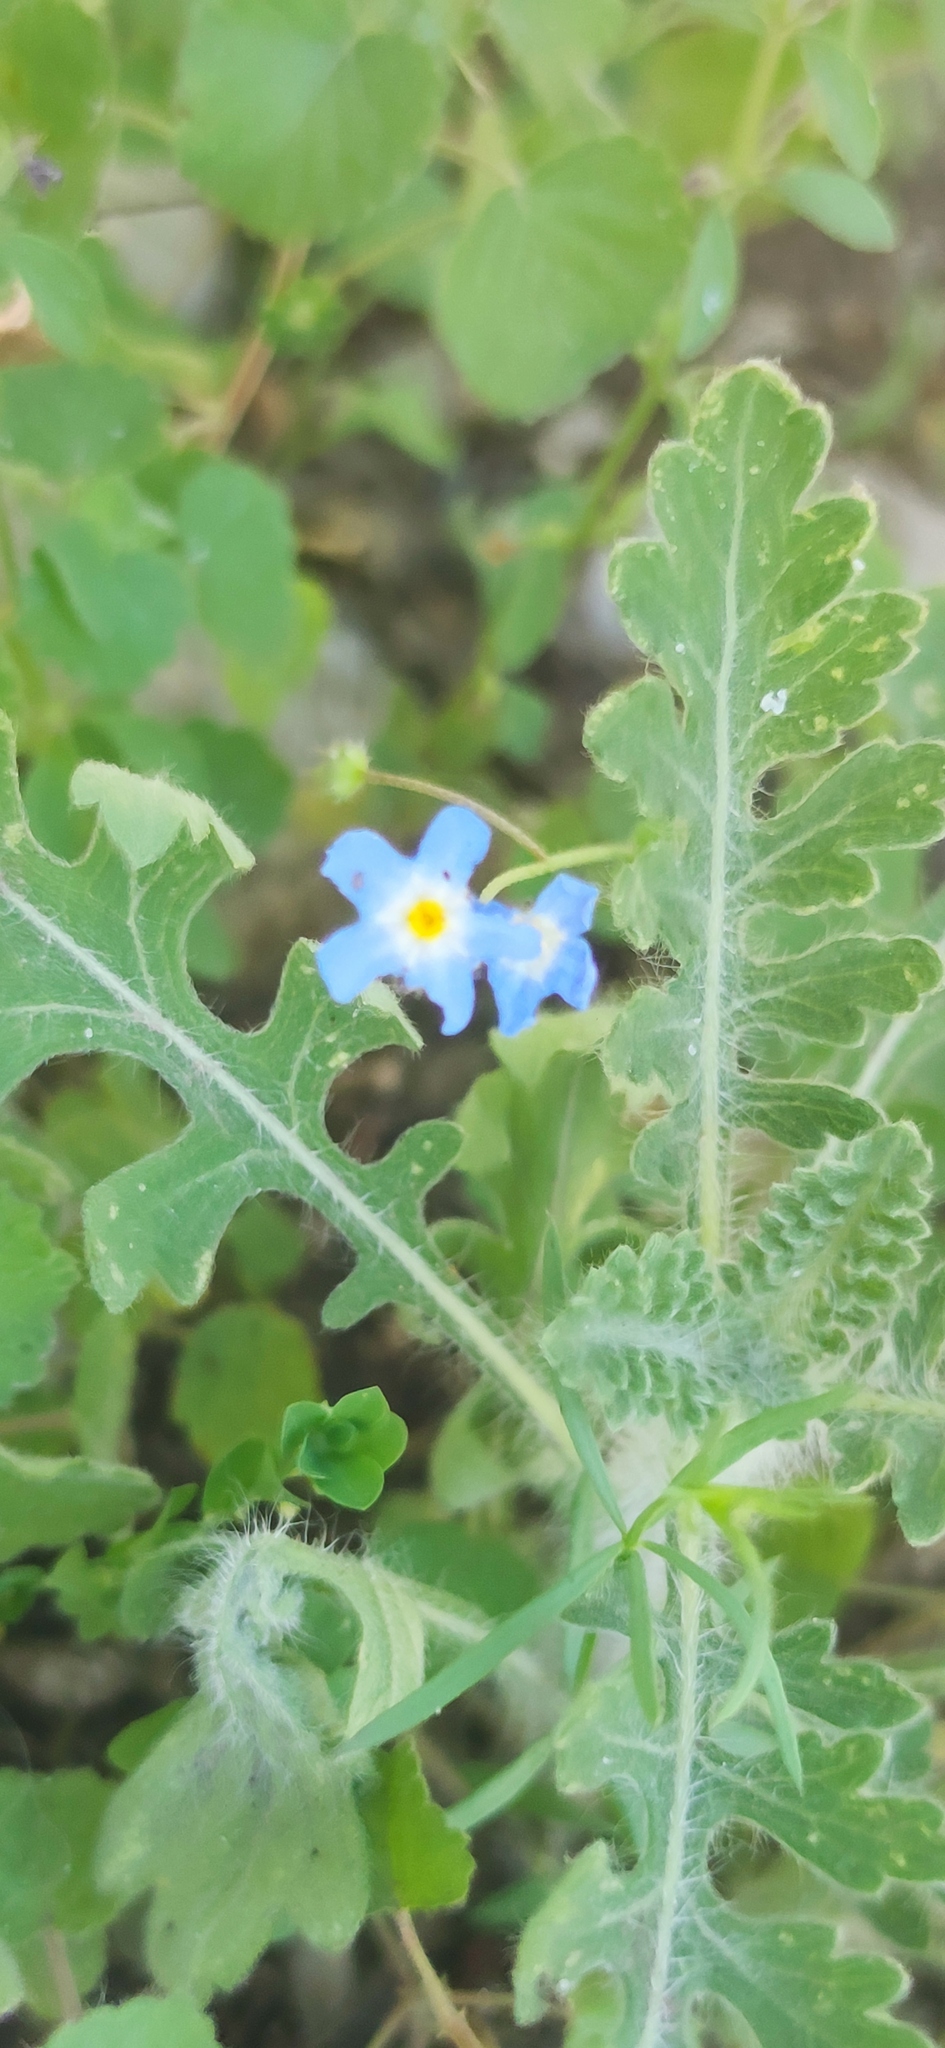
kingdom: Plantae
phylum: Tracheophyta
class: Magnoliopsida
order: Boraginales
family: Boraginaceae
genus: Mimophytum
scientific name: Mimophytum alienum
